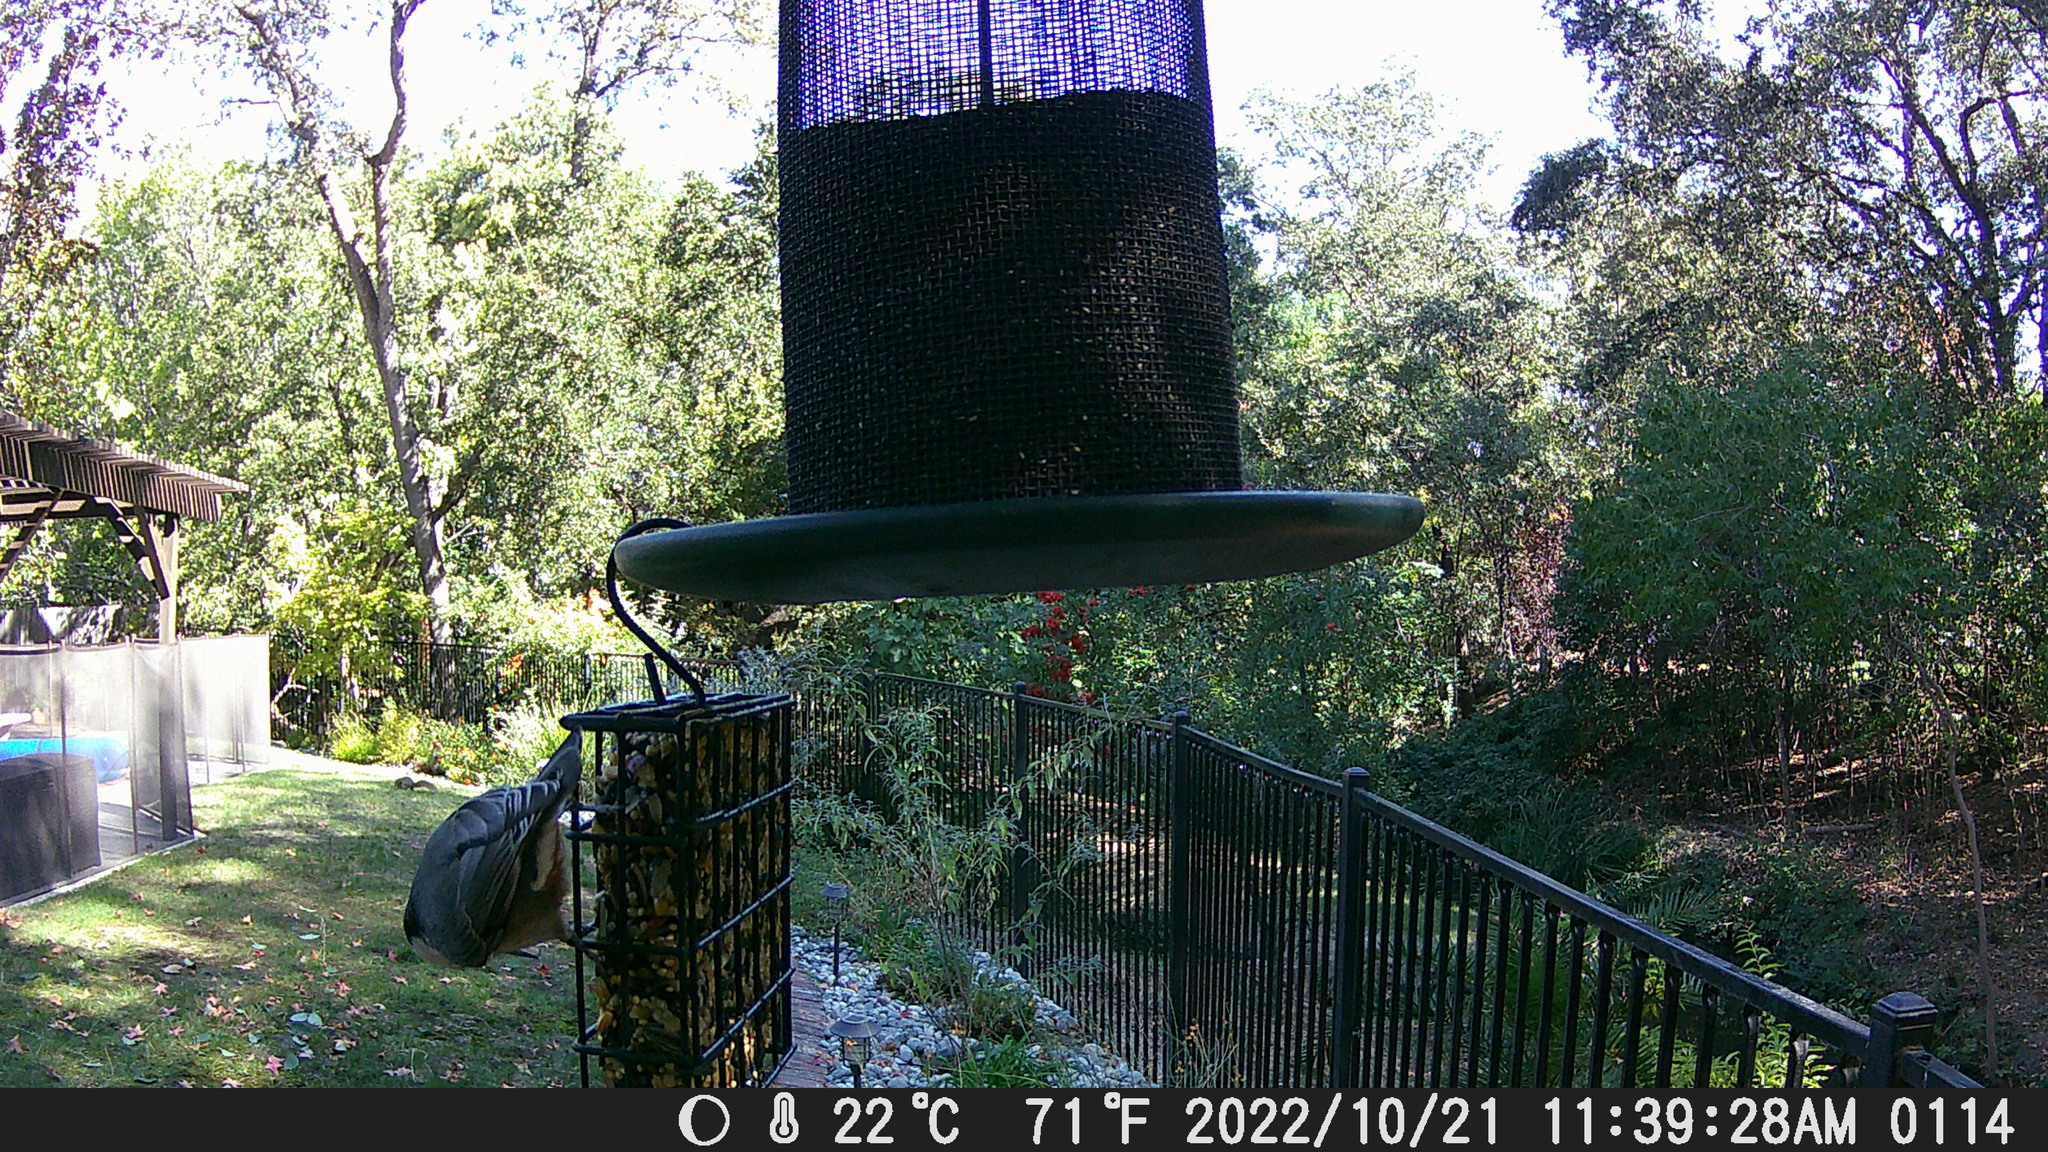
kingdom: Animalia
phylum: Chordata
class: Aves
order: Passeriformes
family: Sittidae
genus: Sitta
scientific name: Sitta carolinensis
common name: White-breasted nuthatch
